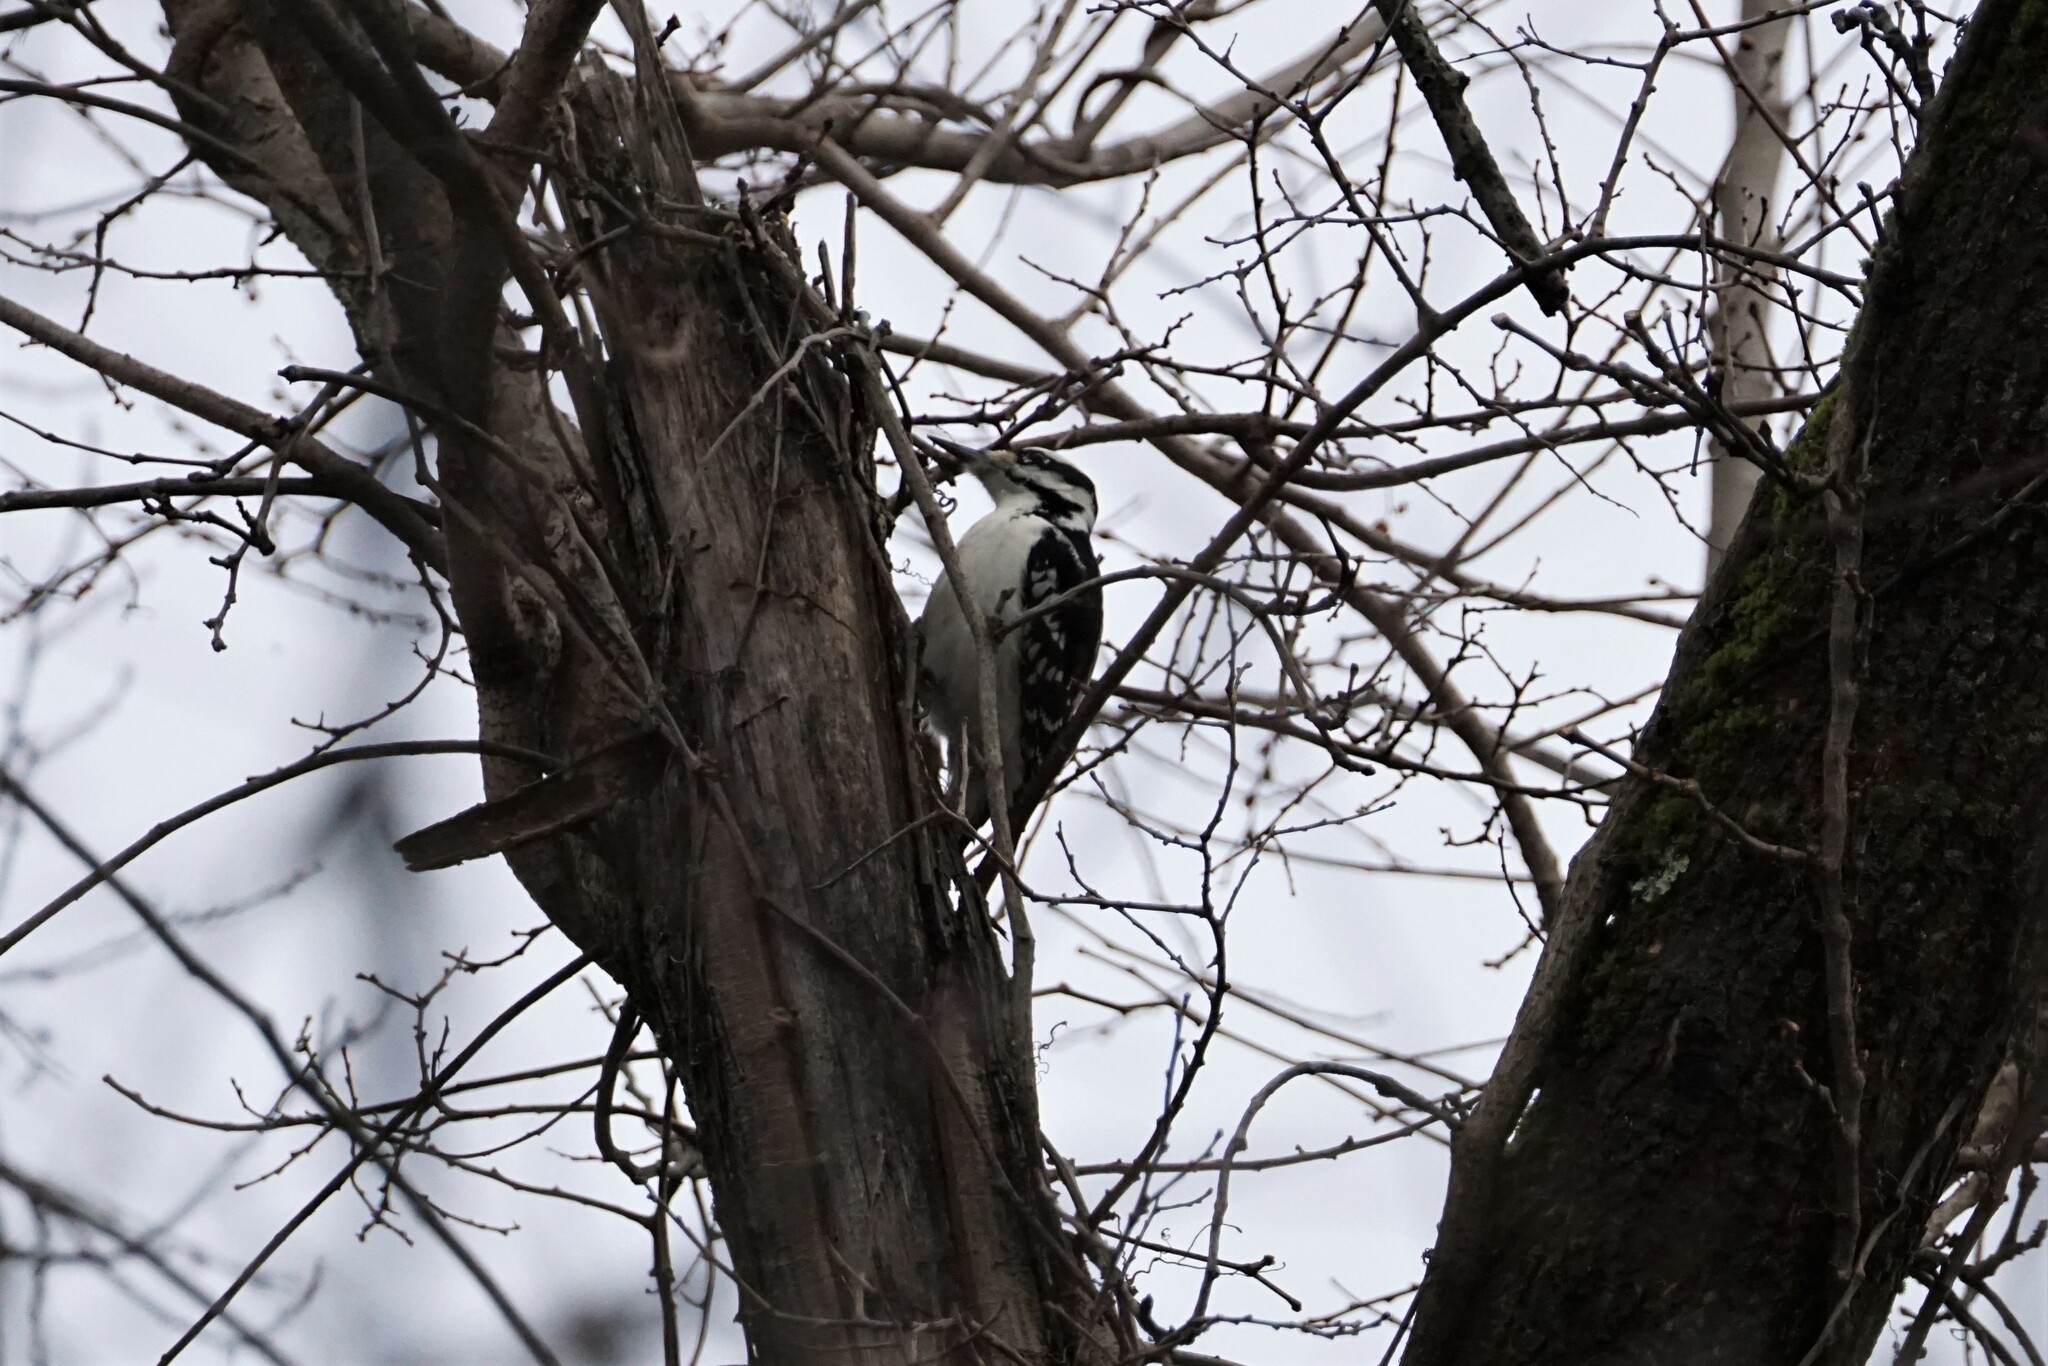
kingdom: Animalia
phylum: Chordata
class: Aves
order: Piciformes
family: Picidae
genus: Leuconotopicus
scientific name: Leuconotopicus villosus
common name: Hairy woodpecker
